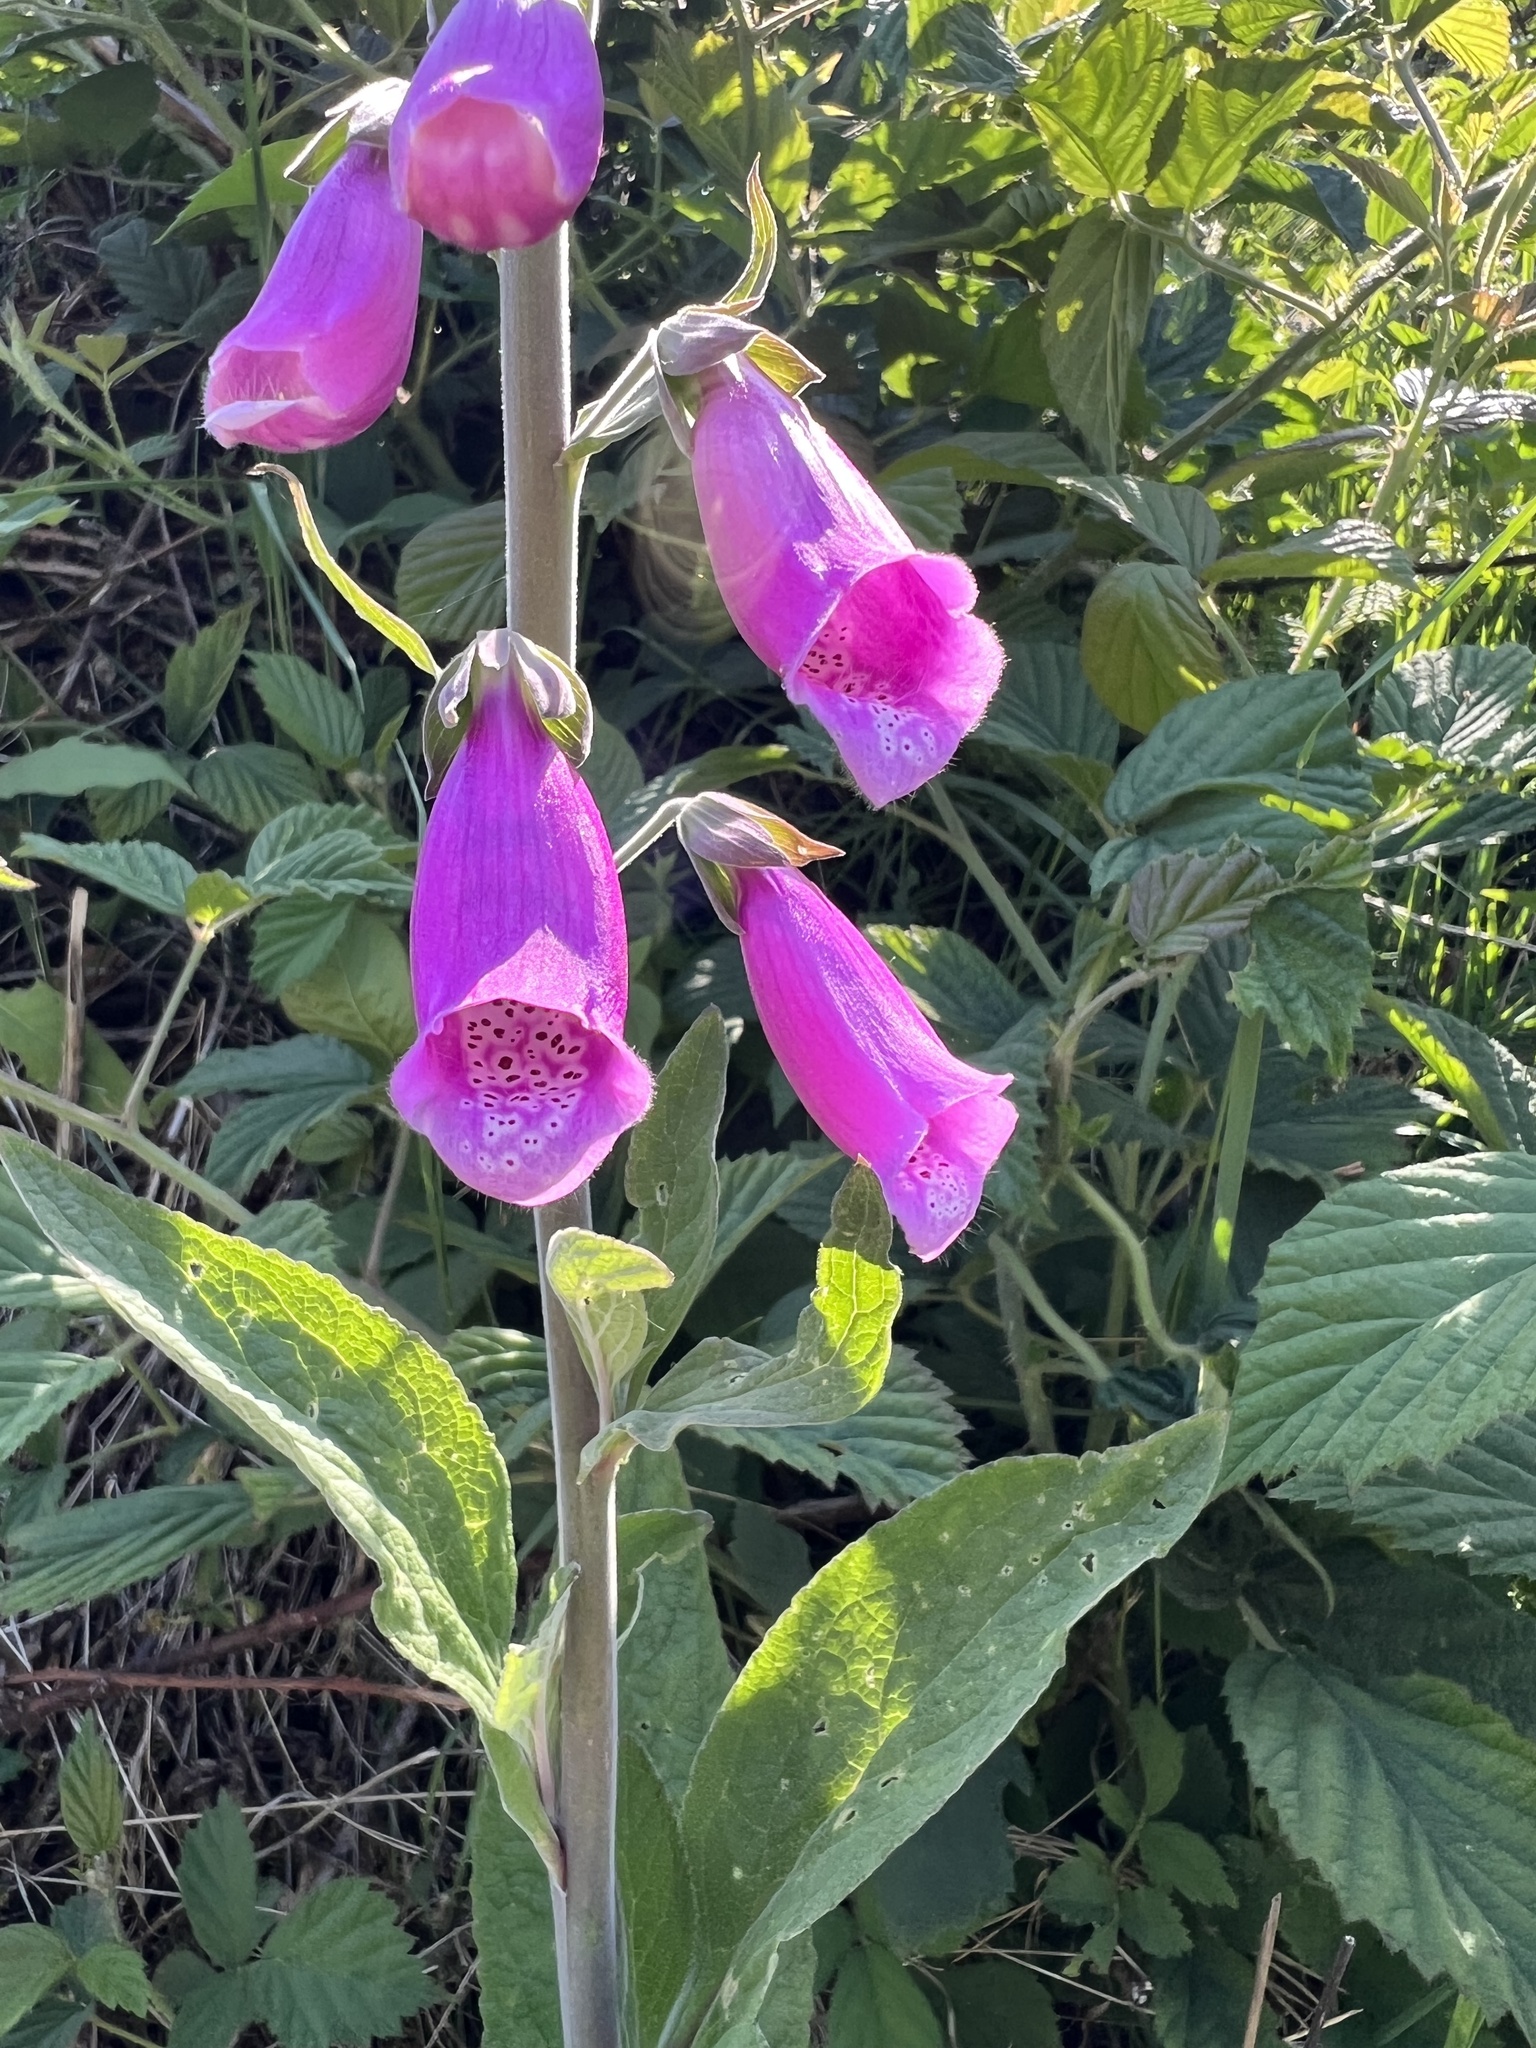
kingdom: Plantae
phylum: Tracheophyta
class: Magnoliopsida
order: Lamiales
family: Plantaginaceae
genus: Digitalis
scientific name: Digitalis purpurea
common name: Foxglove
